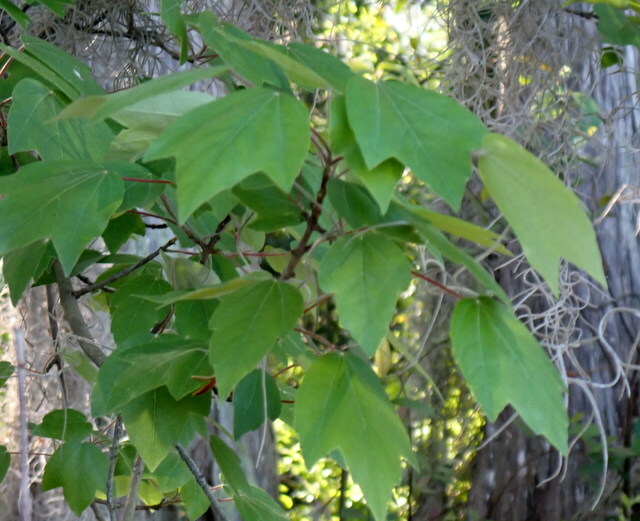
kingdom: Plantae
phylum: Tracheophyta
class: Magnoliopsida
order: Sapindales
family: Sapindaceae
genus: Acer
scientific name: Acer rubrum
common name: Red maple
